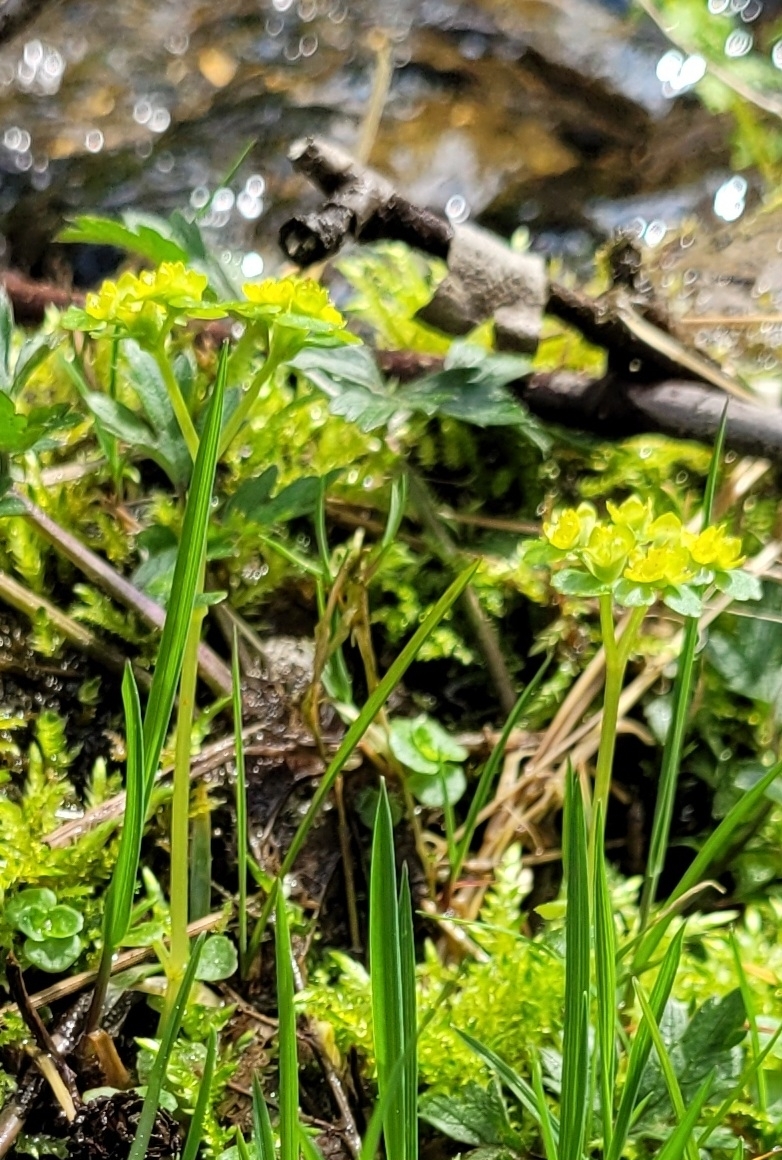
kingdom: Plantae
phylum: Tracheophyta
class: Magnoliopsida
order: Saxifragales
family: Saxifragaceae
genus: Chrysosplenium
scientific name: Chrysosplenium oppositifolium
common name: Opposite-leaved golden-saxifrage
